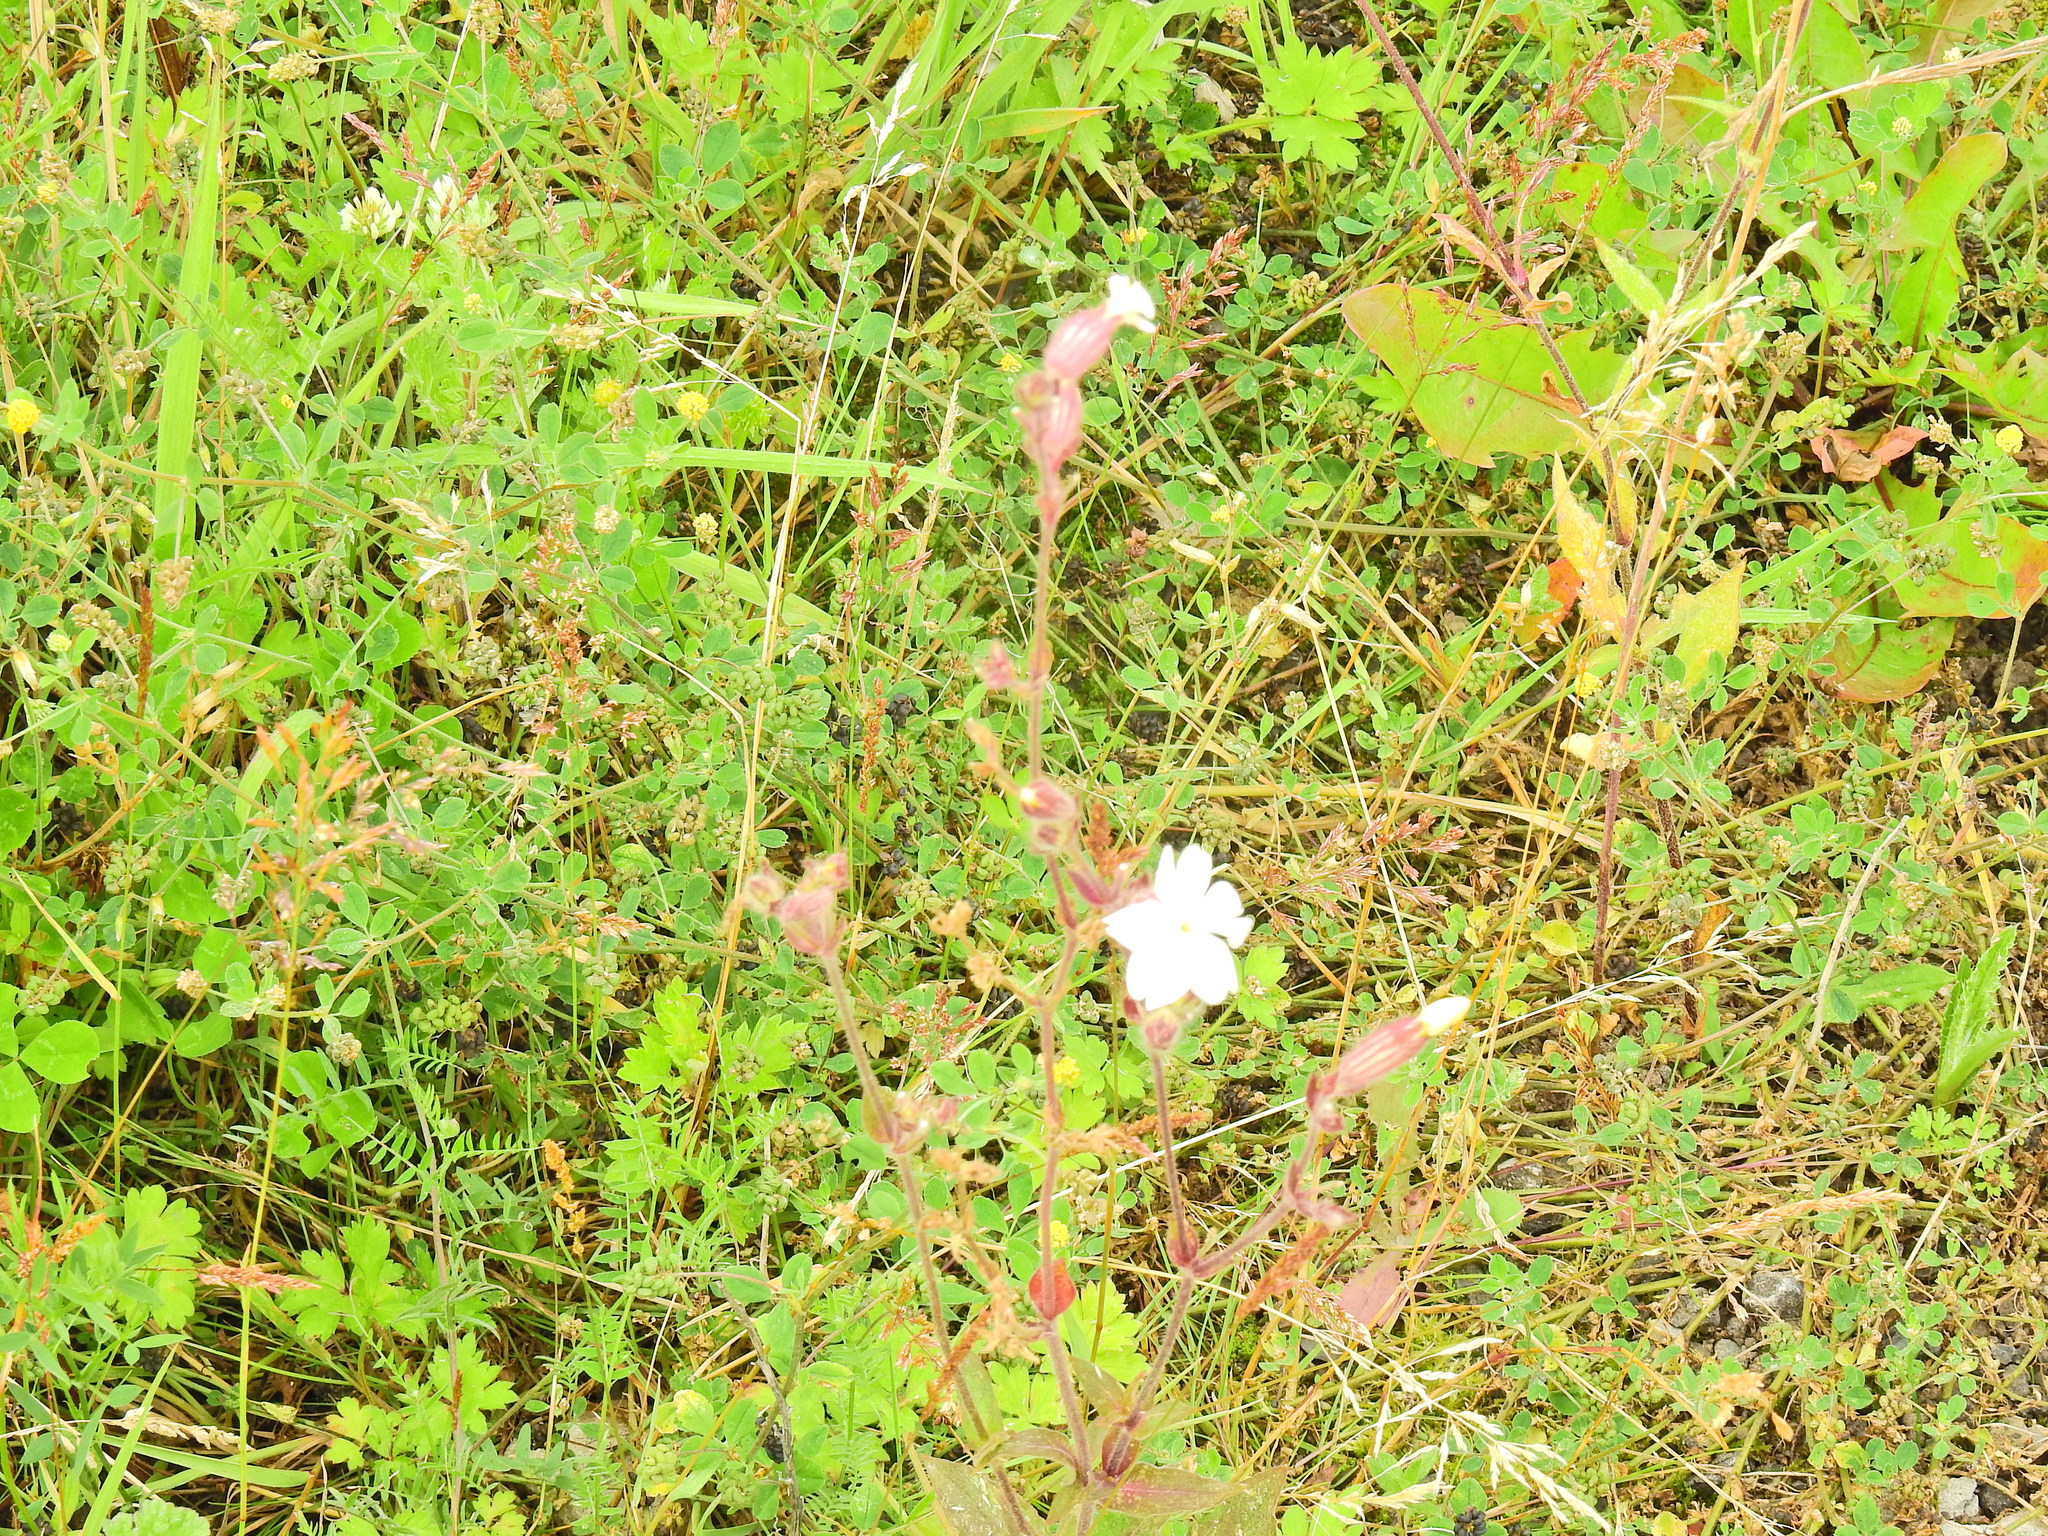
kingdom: Plantae
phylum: Tracheophyta
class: Magnoliopsida
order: Caryophyllales
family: Caryophyllaceae
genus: Silene
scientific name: Silene latifolia
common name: White campion
